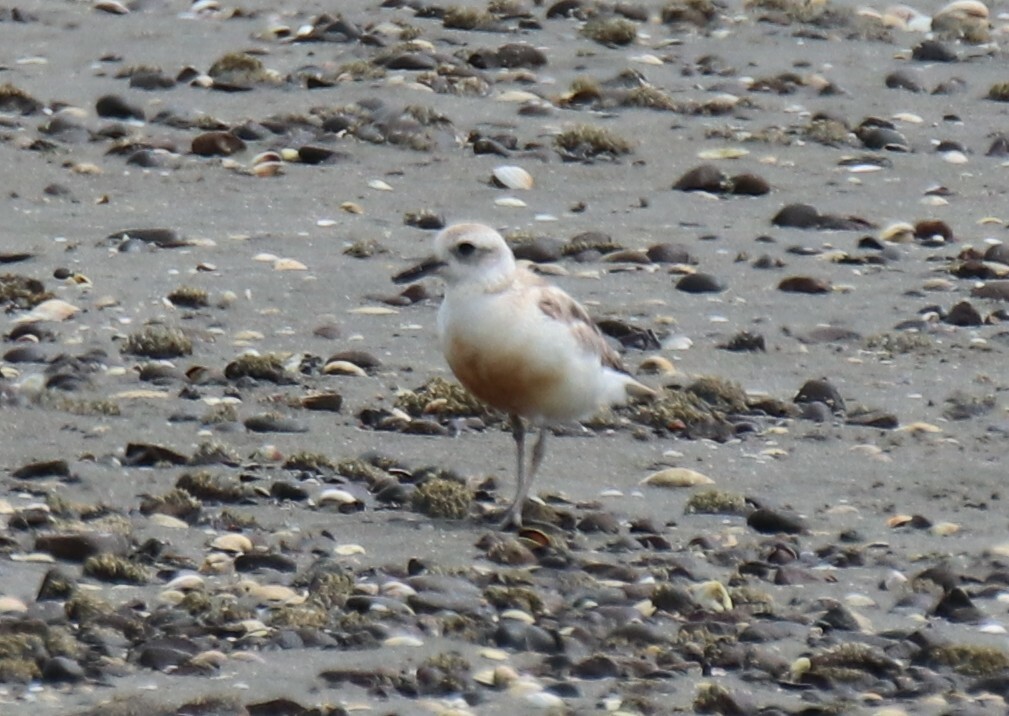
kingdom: Animalia
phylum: Chordata
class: Aves
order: Charadriiformes
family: Charadriidae
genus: Anarhynchus
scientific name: Anarhynchus
